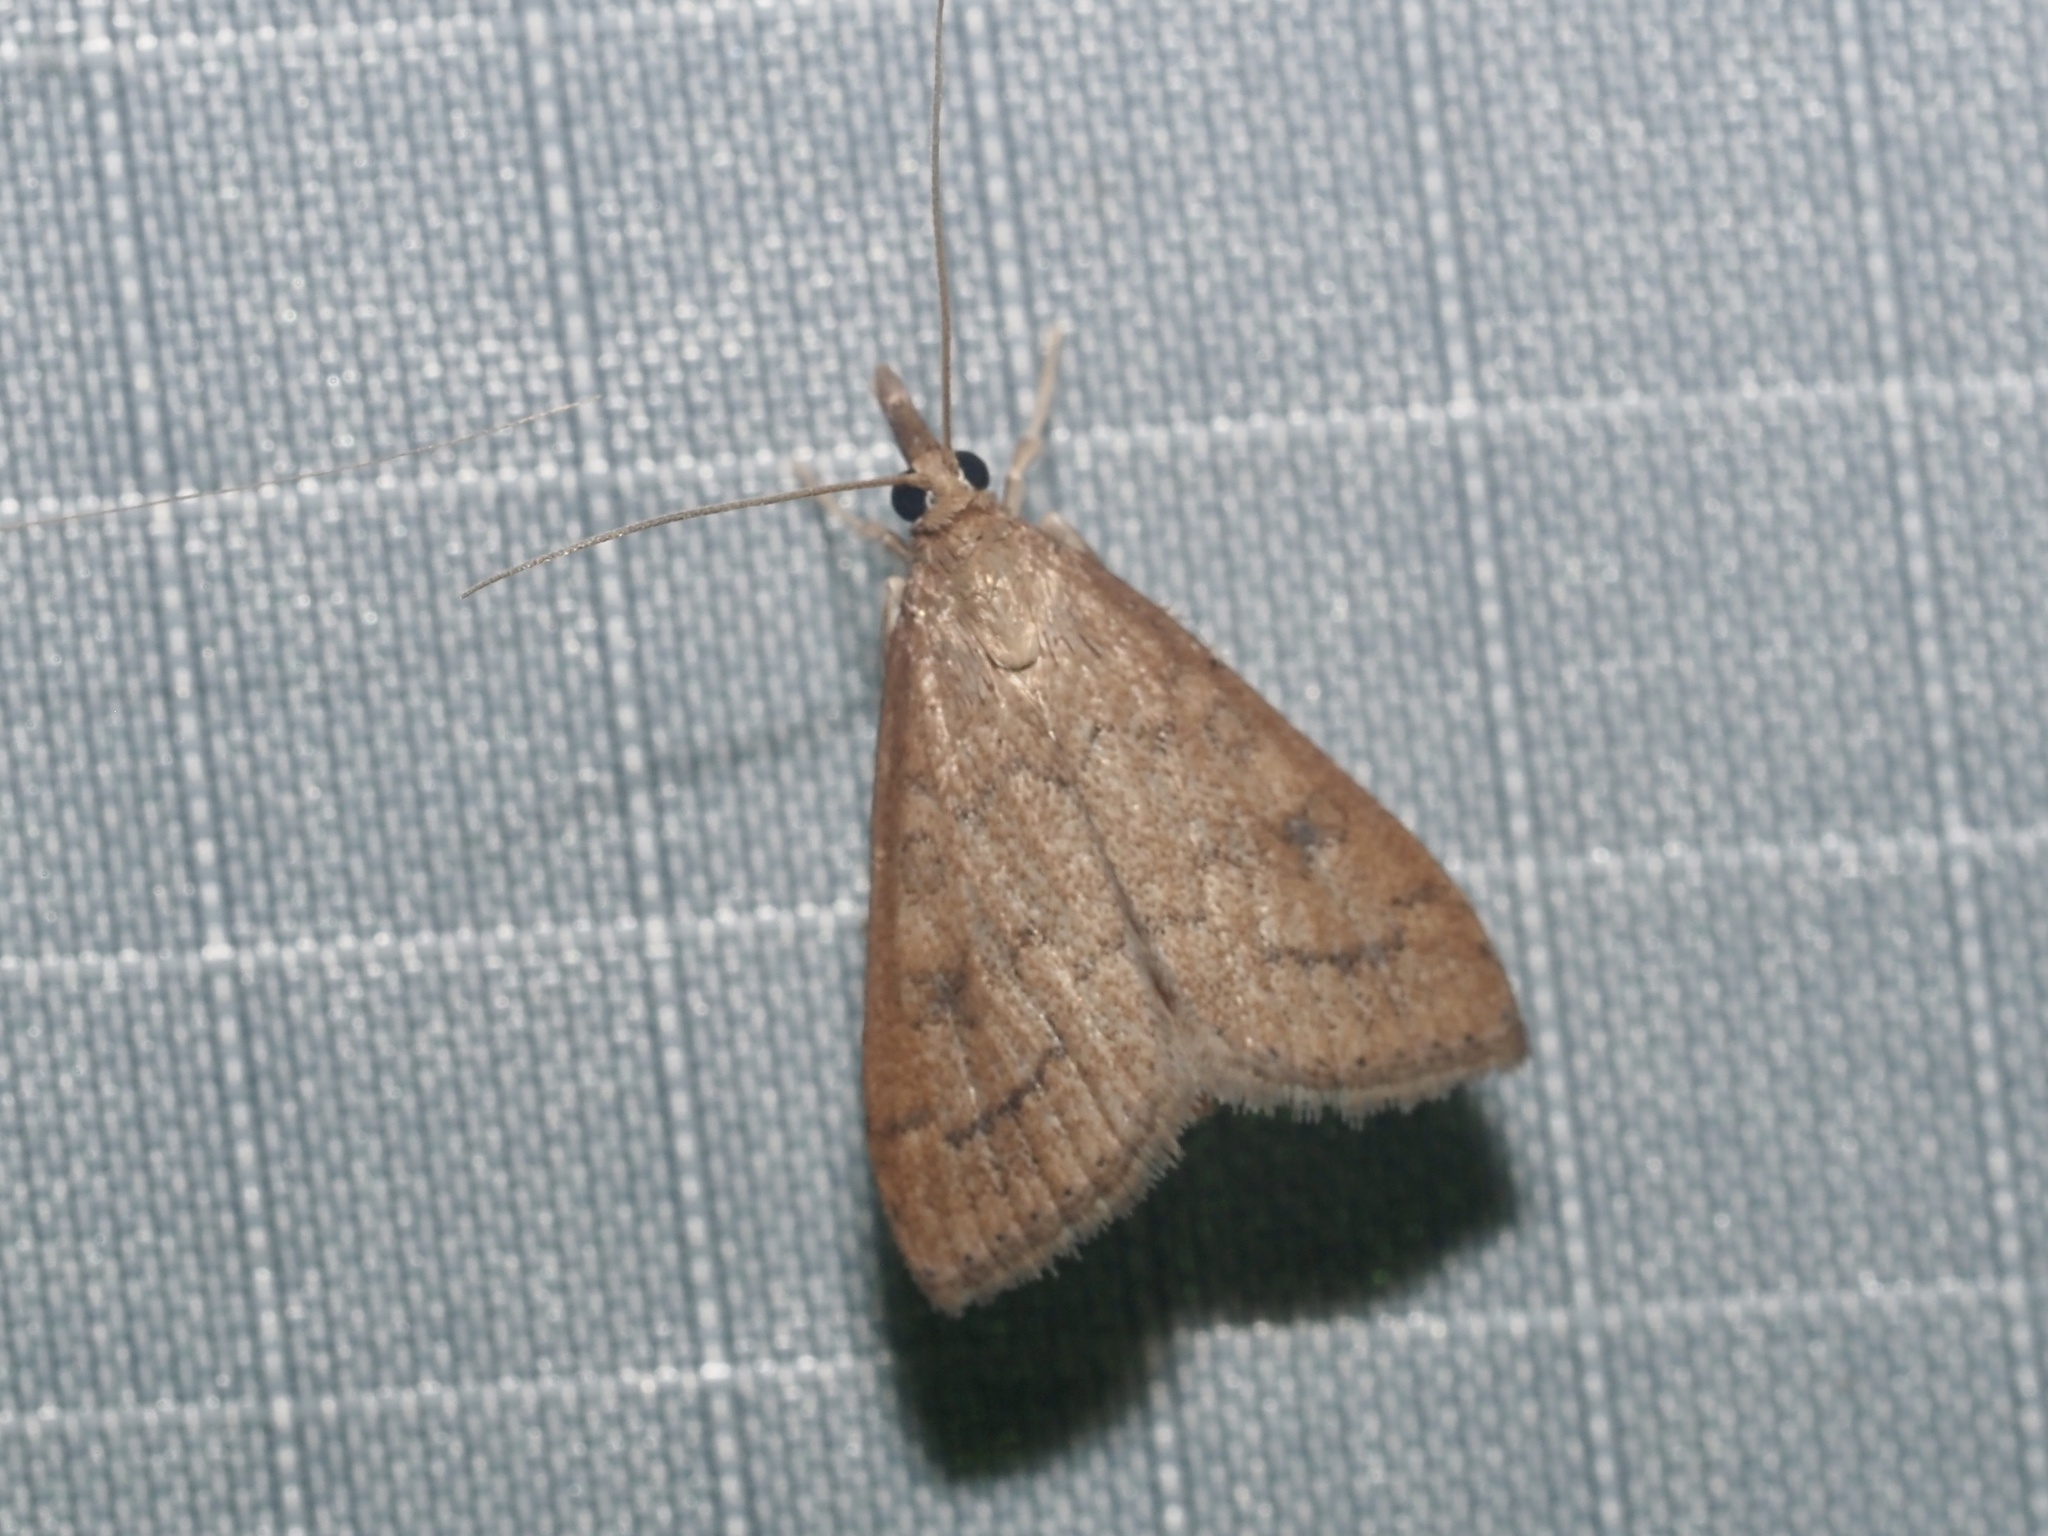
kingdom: Animalia
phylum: Arthropoda
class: Insecta
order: Lepidoptera
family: Crambidae
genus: Udea
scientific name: Udea rubigalis
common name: Celery leaftier moth
